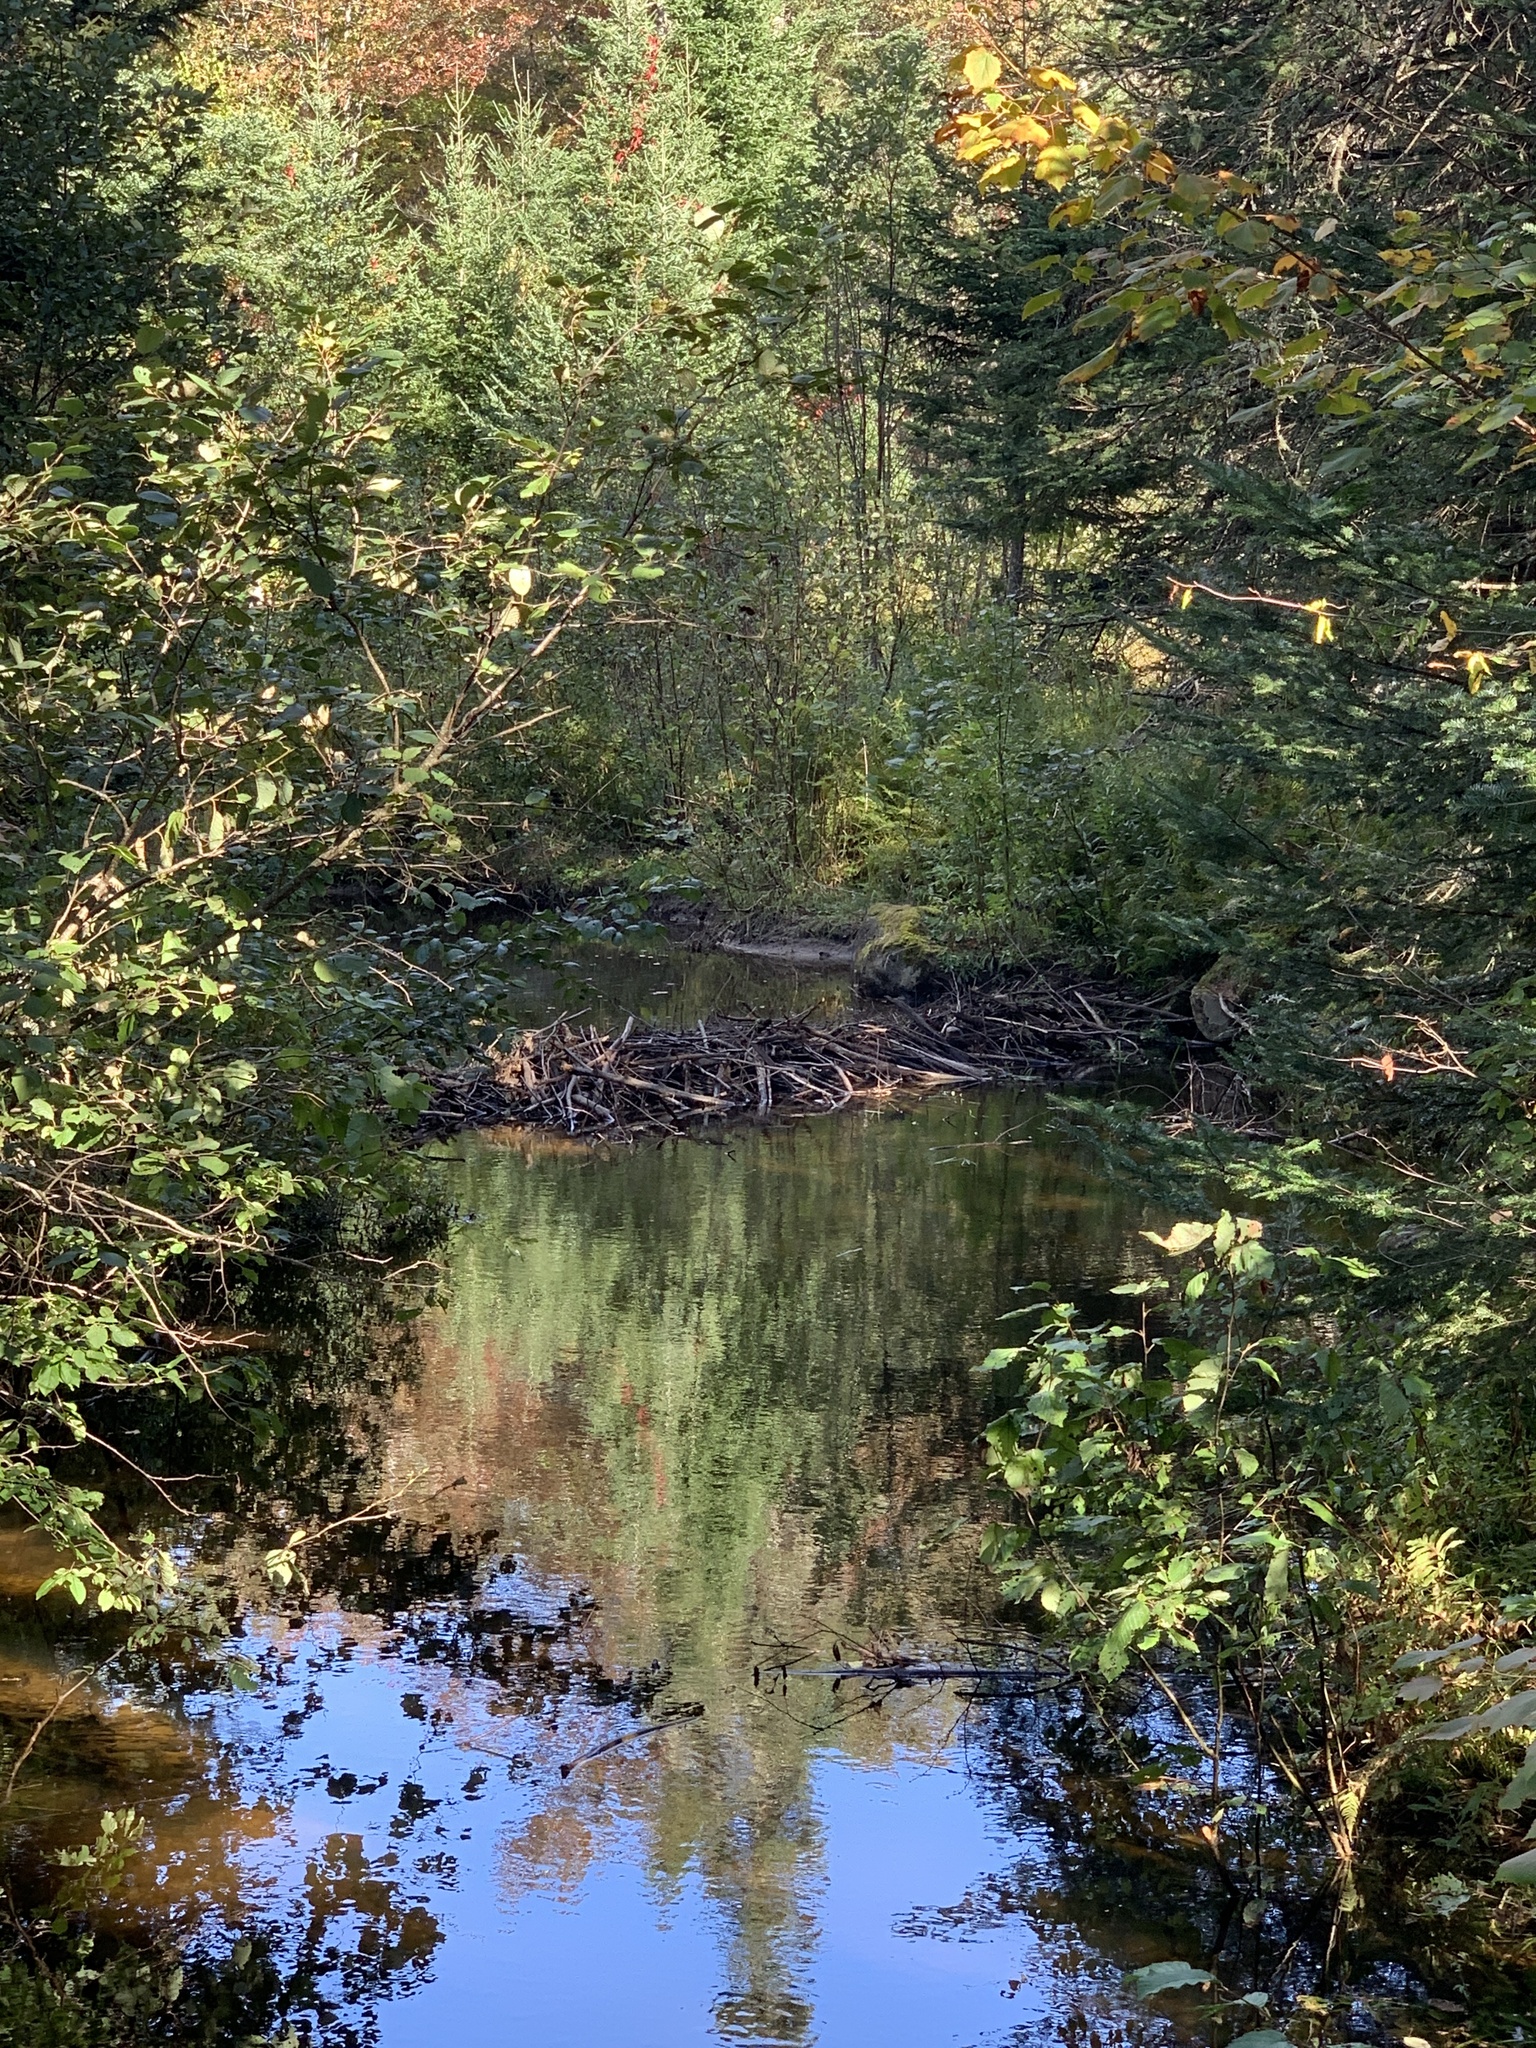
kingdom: Animalia
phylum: Chordata
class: Mammalia
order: Rodentia
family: Castoridae
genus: Castor
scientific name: Castor canadensis
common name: American beaver
